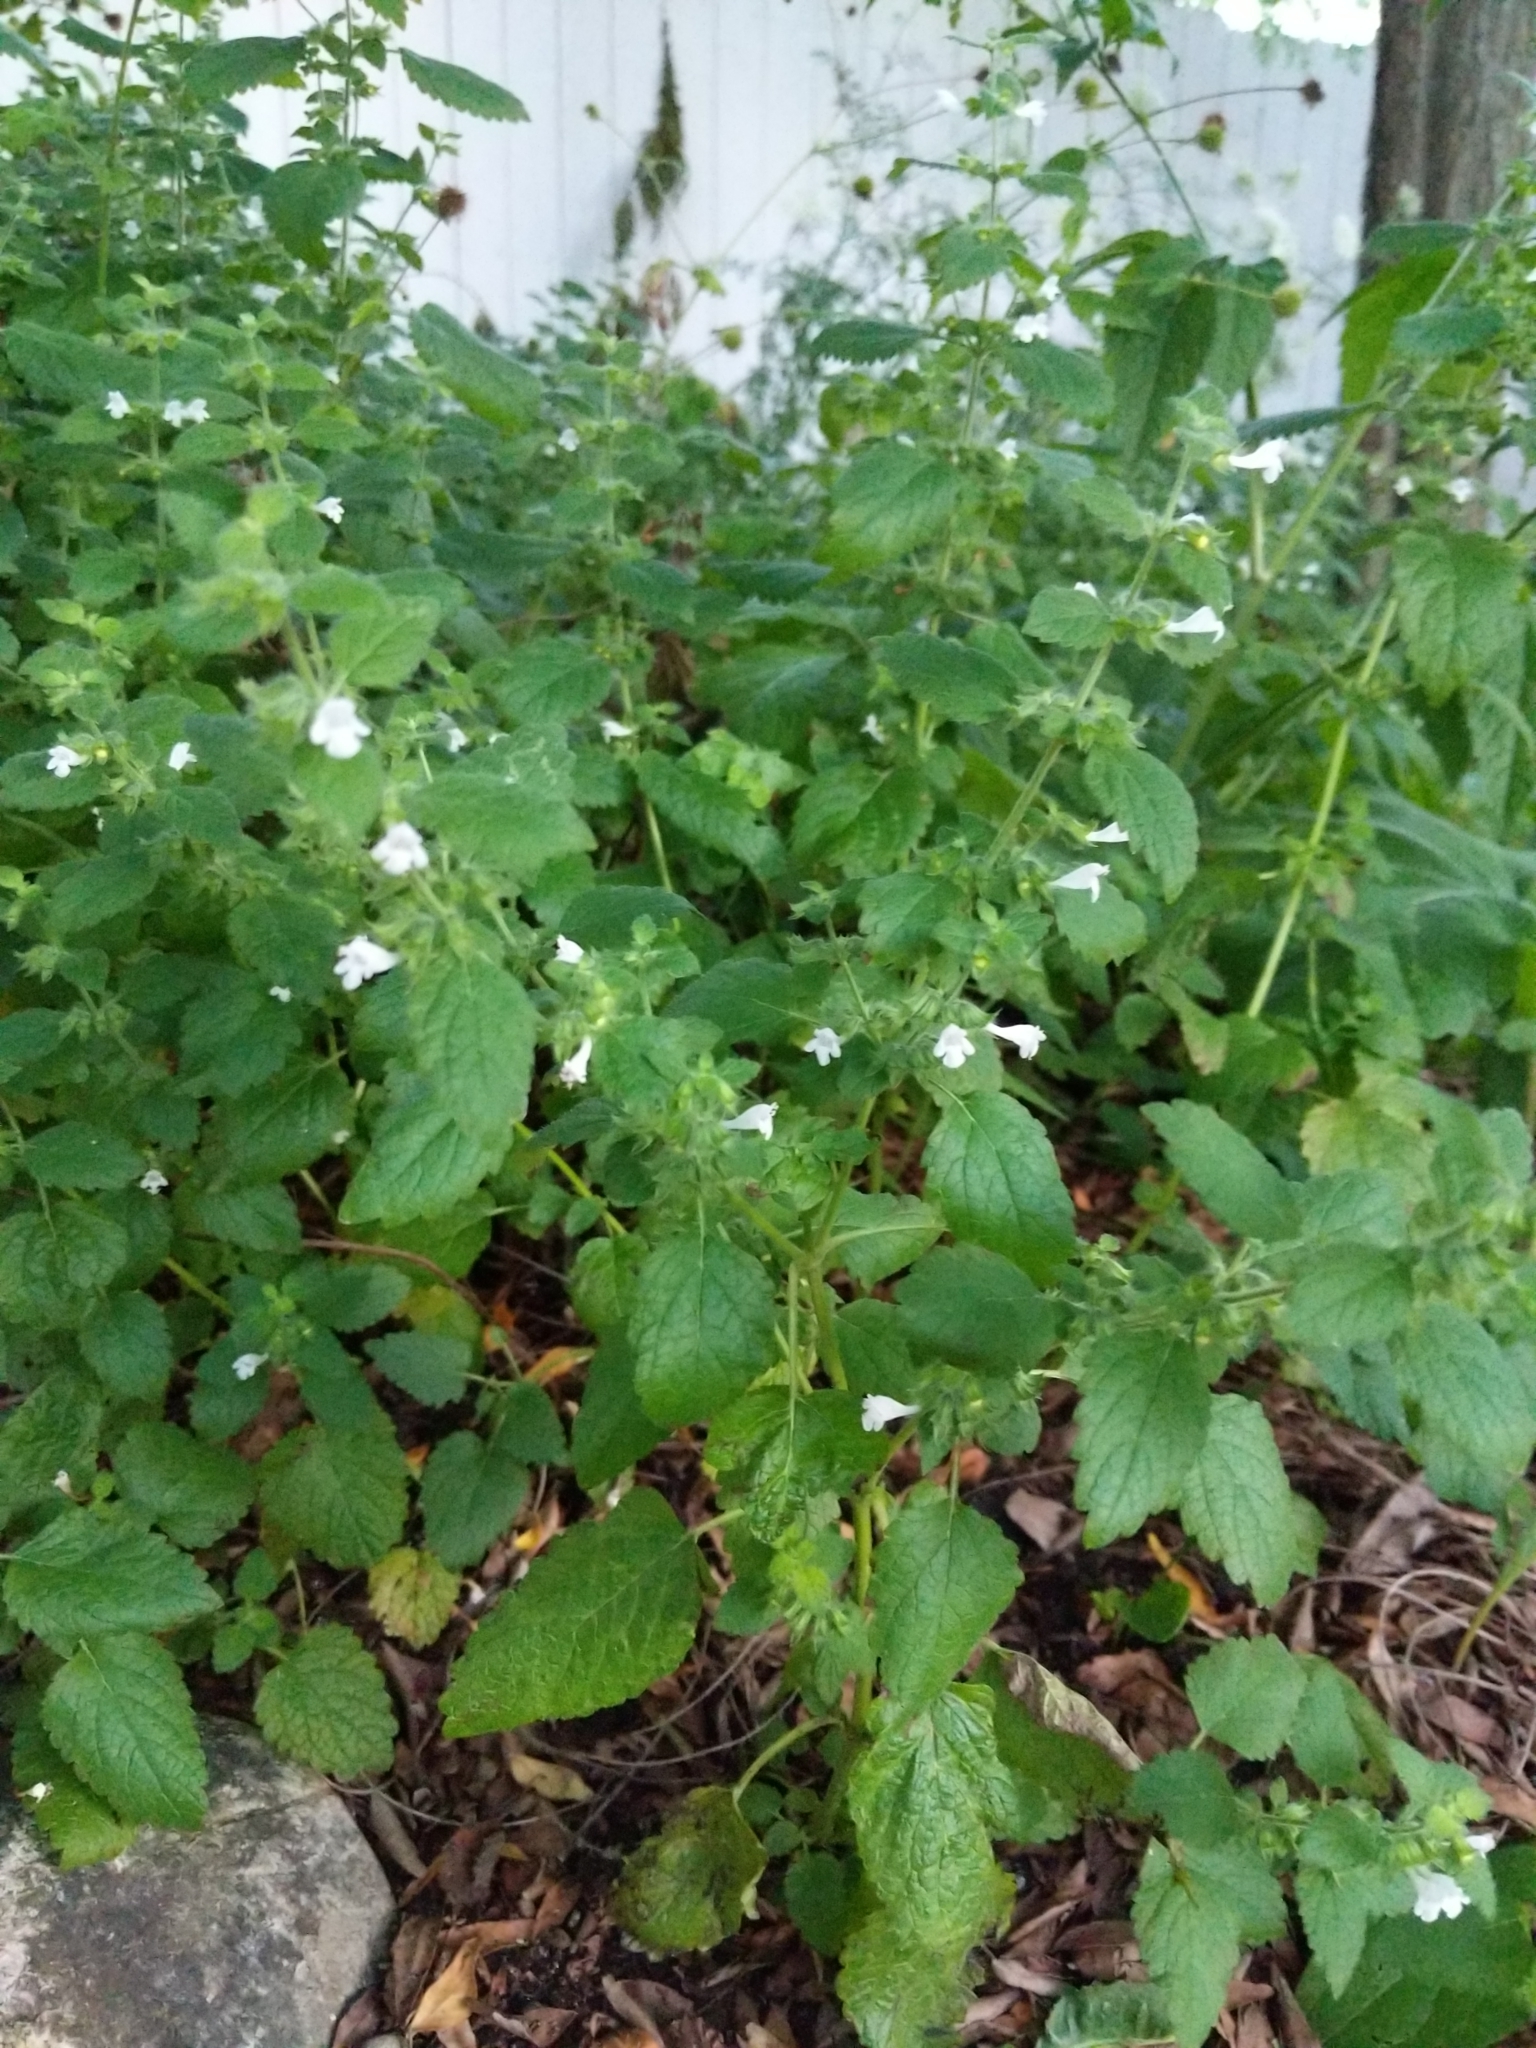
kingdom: Plantae
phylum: Tracheophyta
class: Magnoliopsida
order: Lamiales
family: Lamiaceae
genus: Melissa
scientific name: Melissa officinalis
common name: Balm
